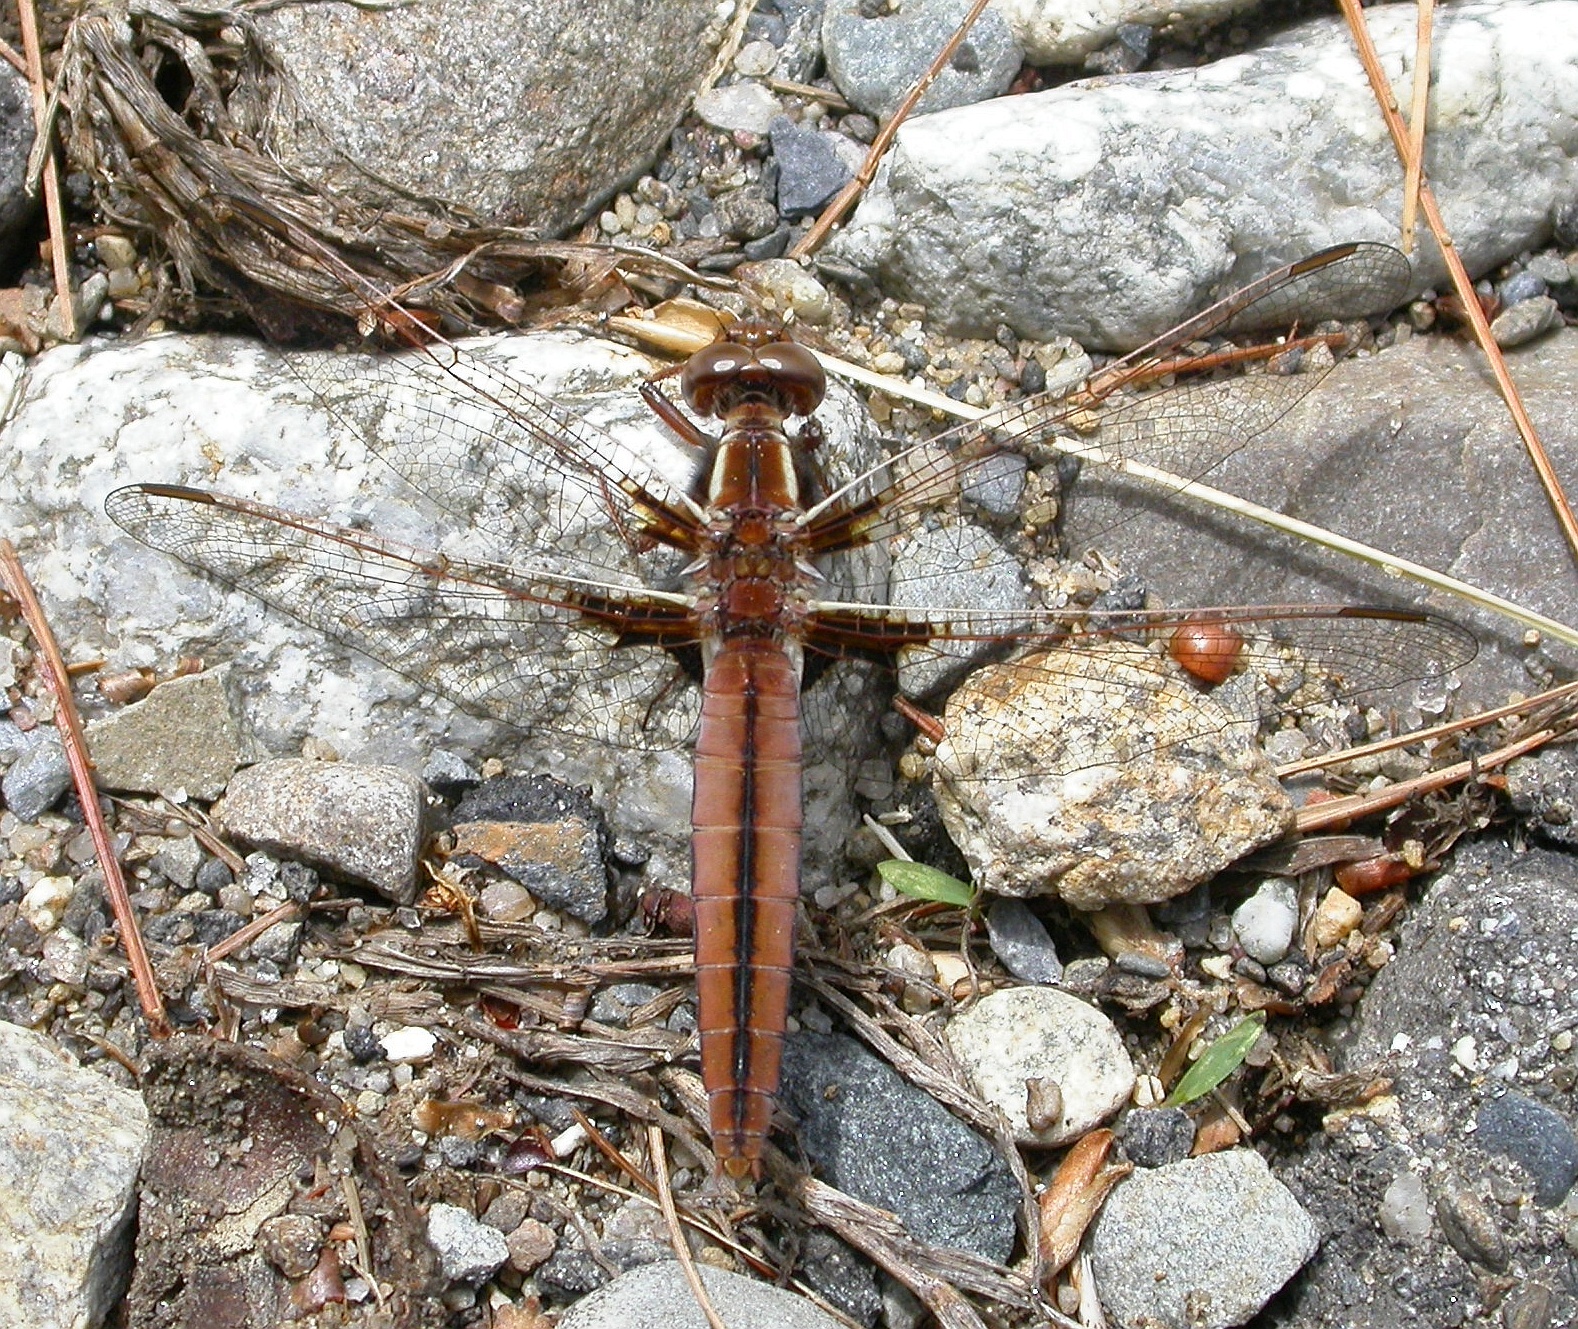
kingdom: Animalia
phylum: Arthropoda
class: Insecta
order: Odonata
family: Libellulidae
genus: Ladona
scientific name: Ladona exusta
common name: Libellule embrasée
